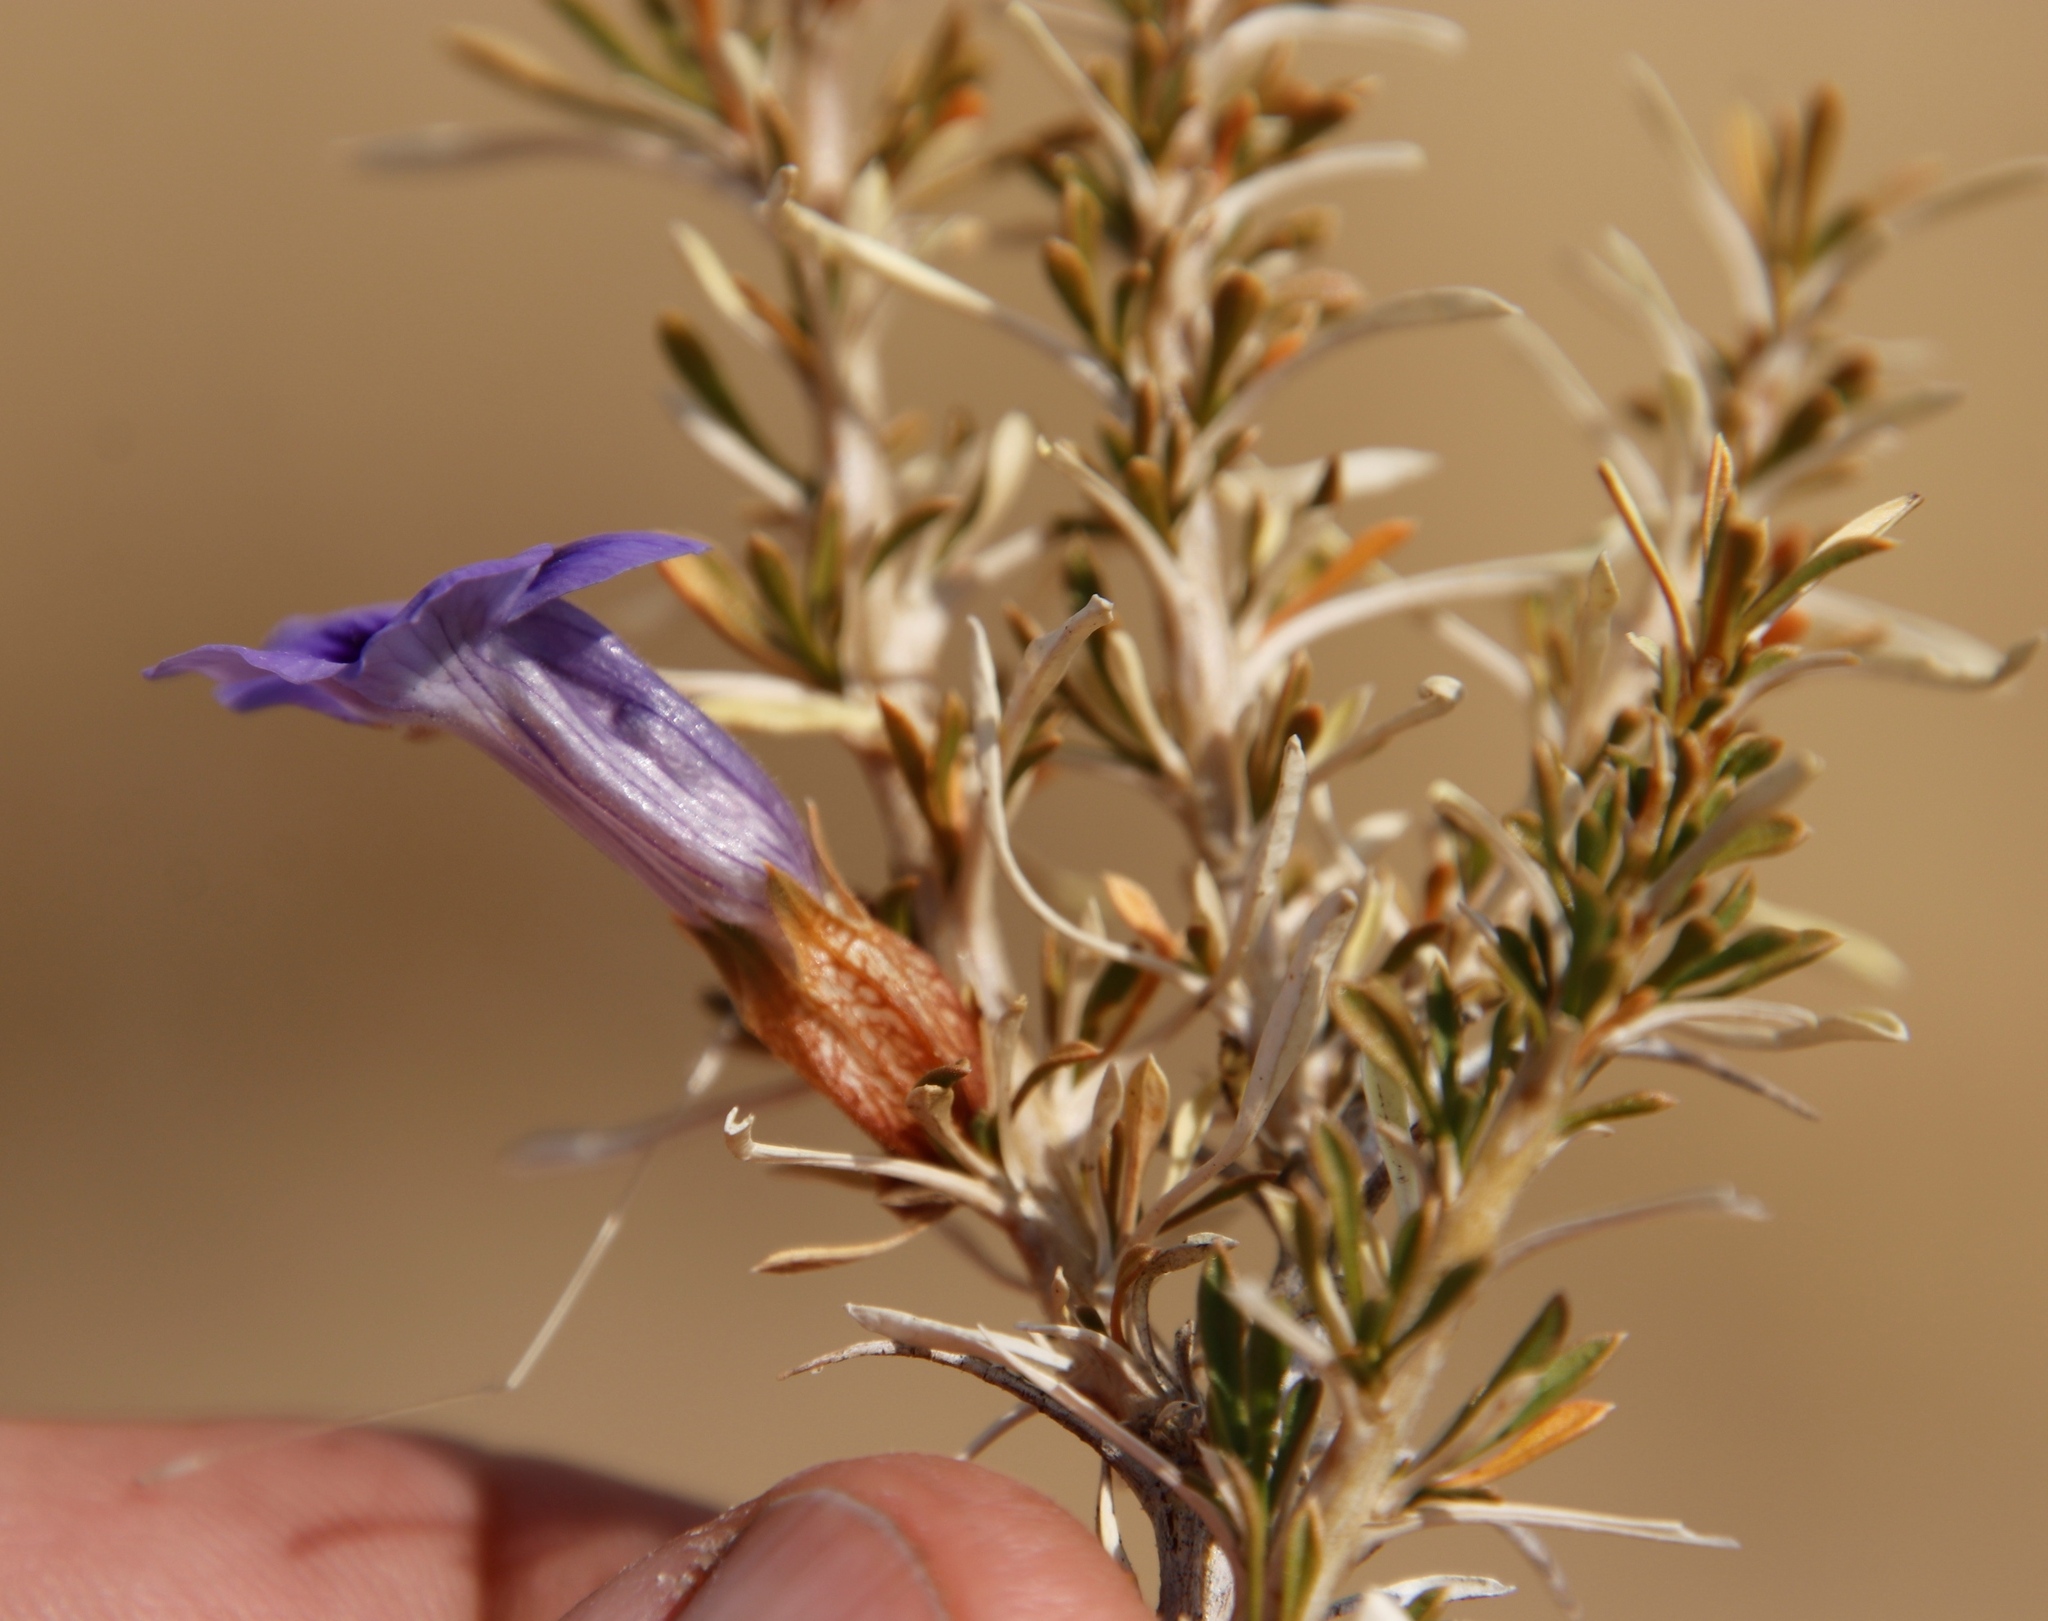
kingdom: Plantae
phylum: Tracheophyta
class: Magnoliopsida
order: Lamiales
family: Scrophulariaceae
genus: Aptosimum
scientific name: Aptosimum spinescens
